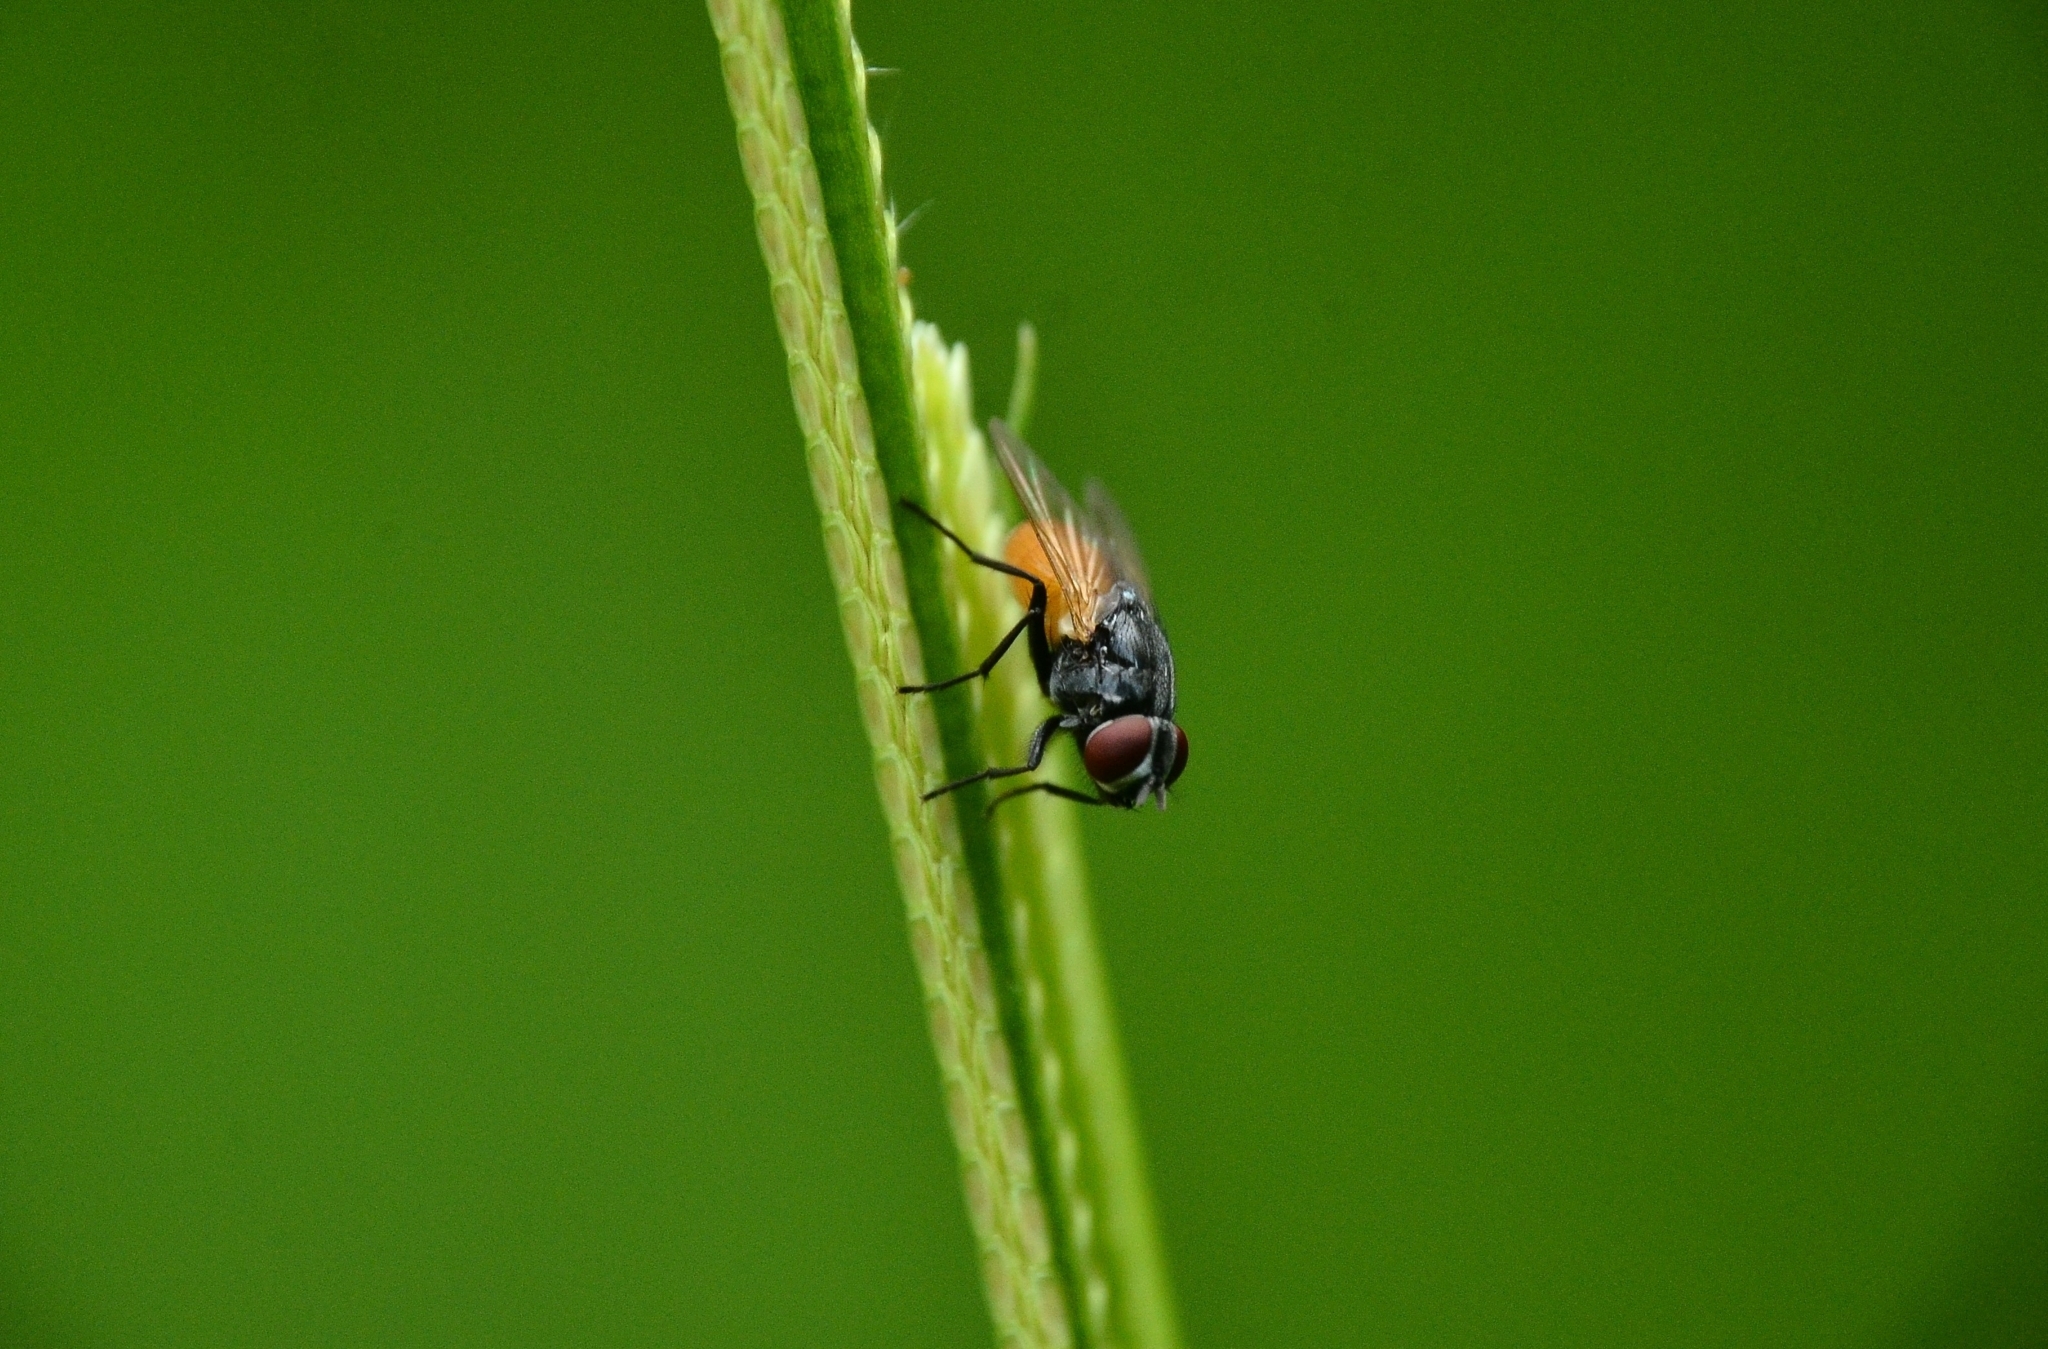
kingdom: Animalia
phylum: Arthropoda
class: Insecta
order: Diptera
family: Muscidae
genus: Musca
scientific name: Musca domestica
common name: House fly
